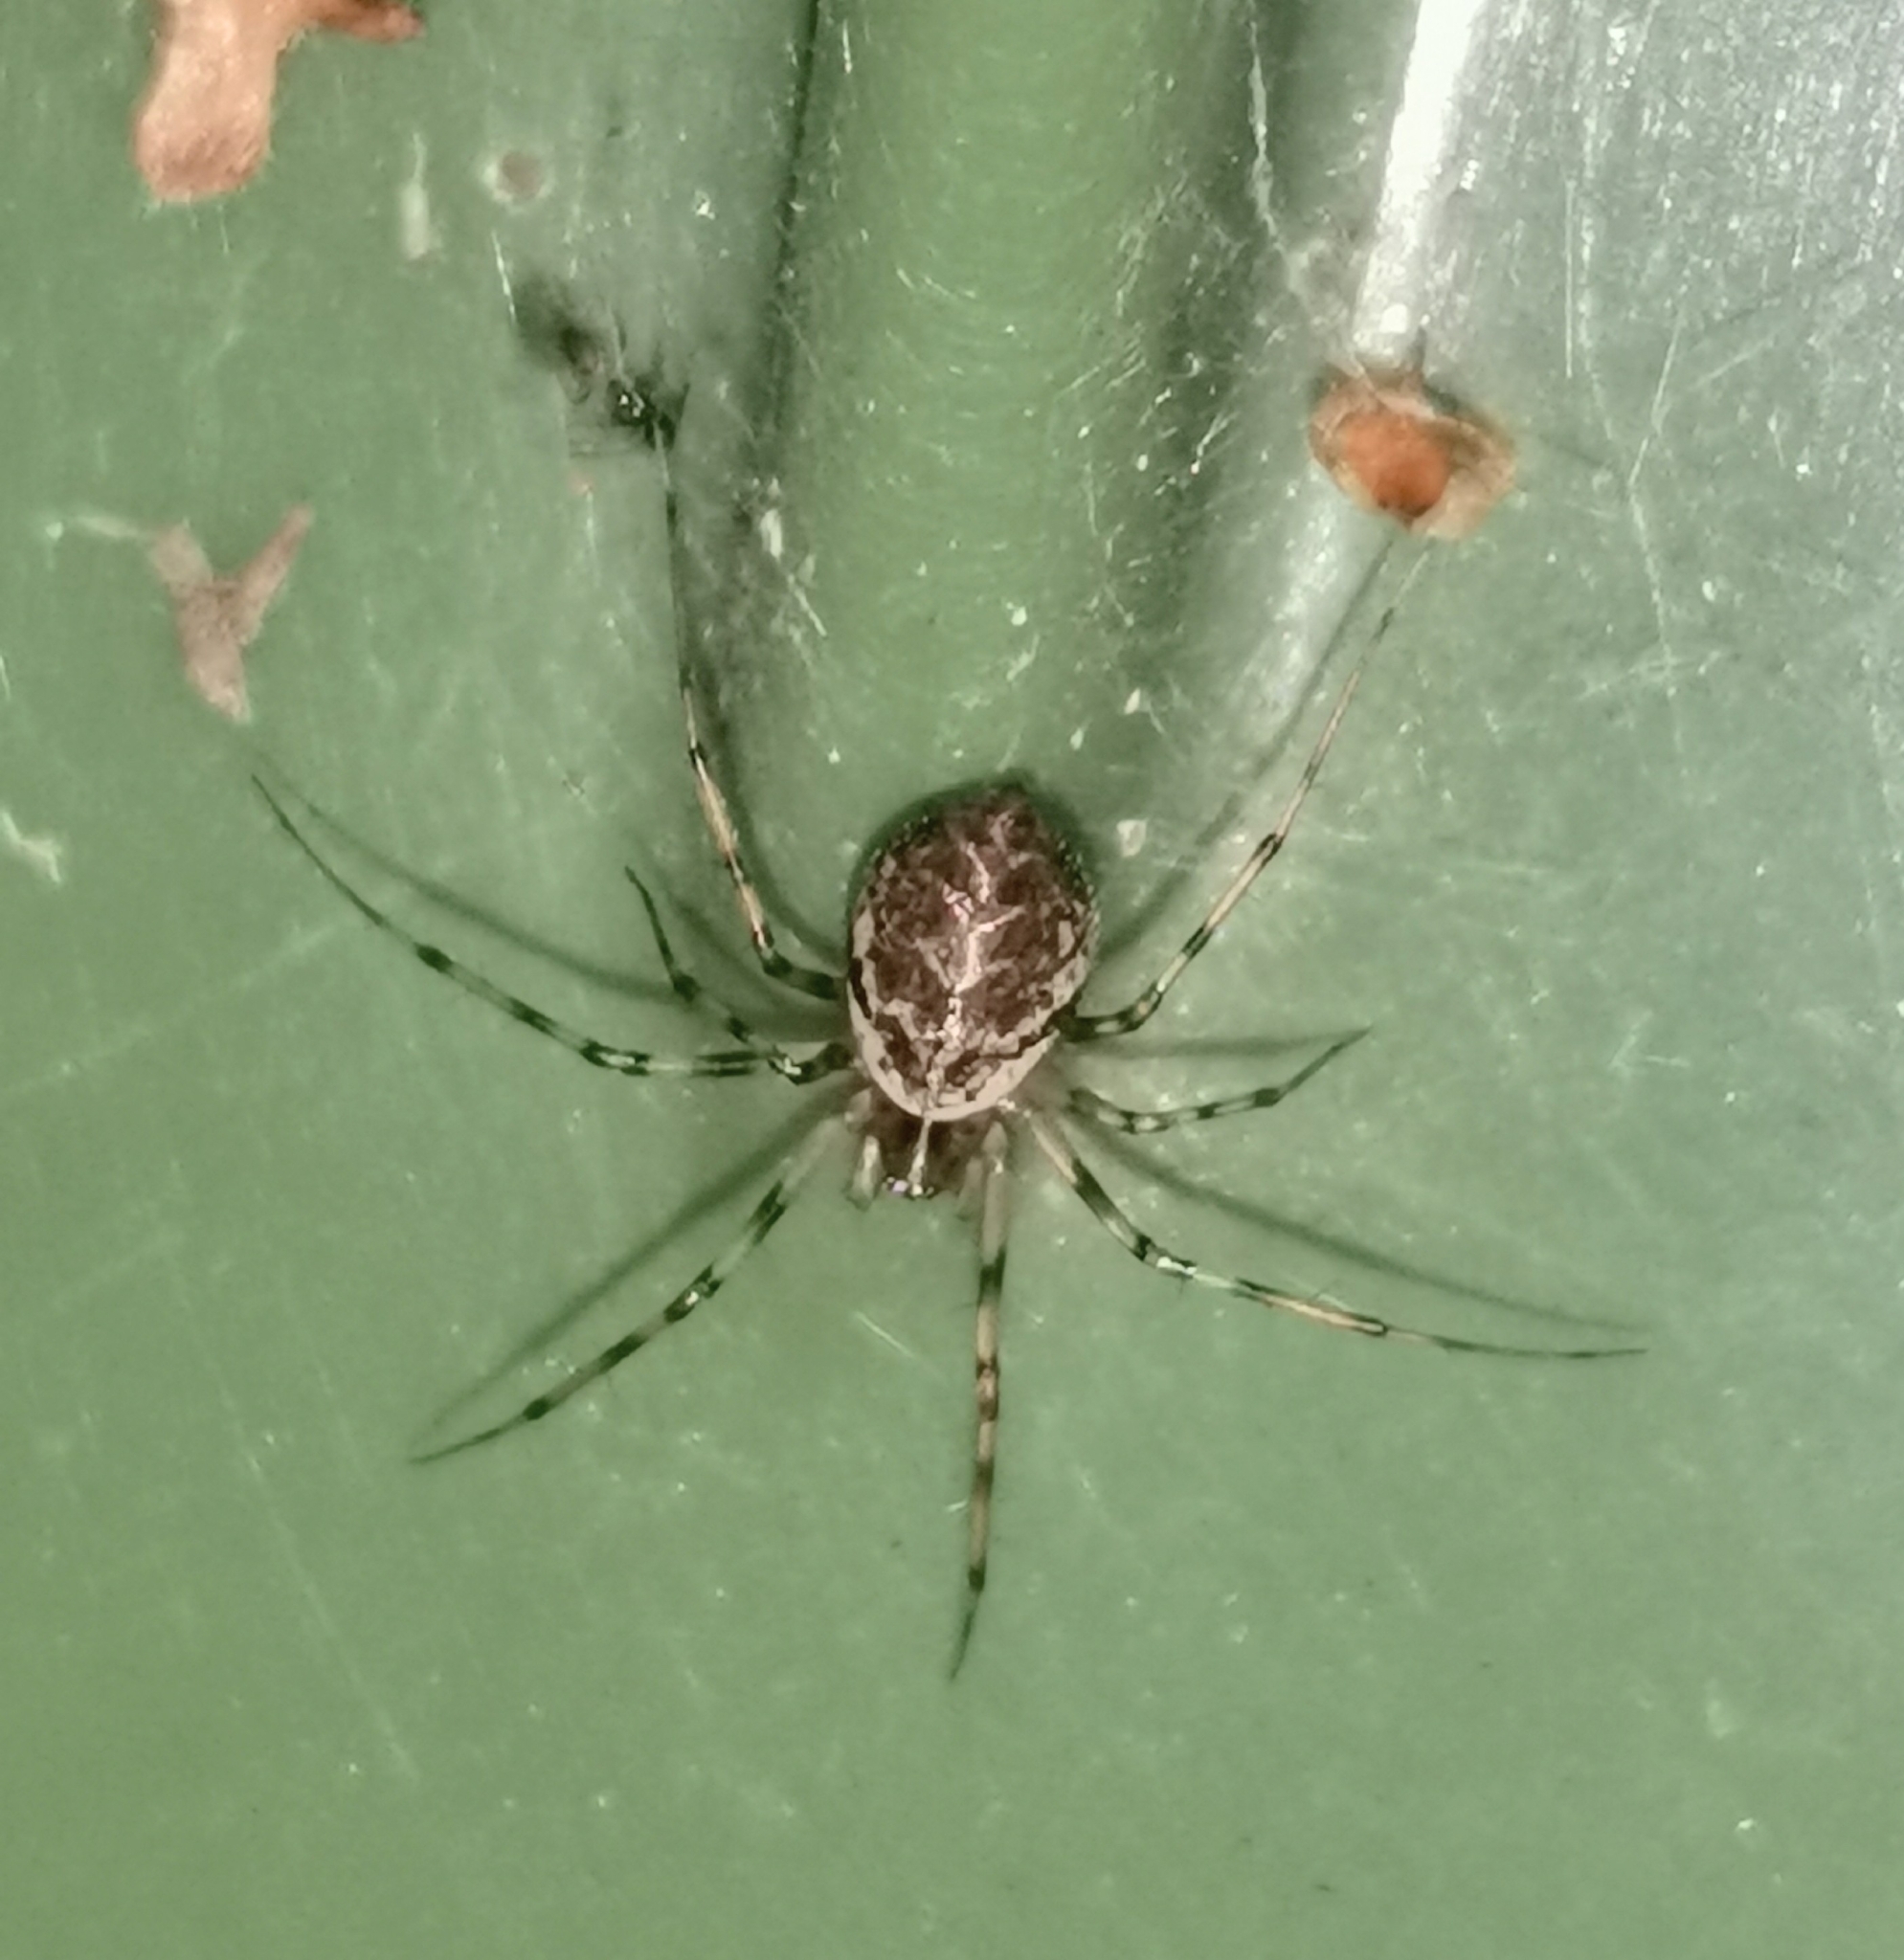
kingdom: Animalia
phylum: Arthropoda
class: Arachnida
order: Araneae
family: Linyphiidae
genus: Drapetisca
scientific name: Drapetisca socialis
